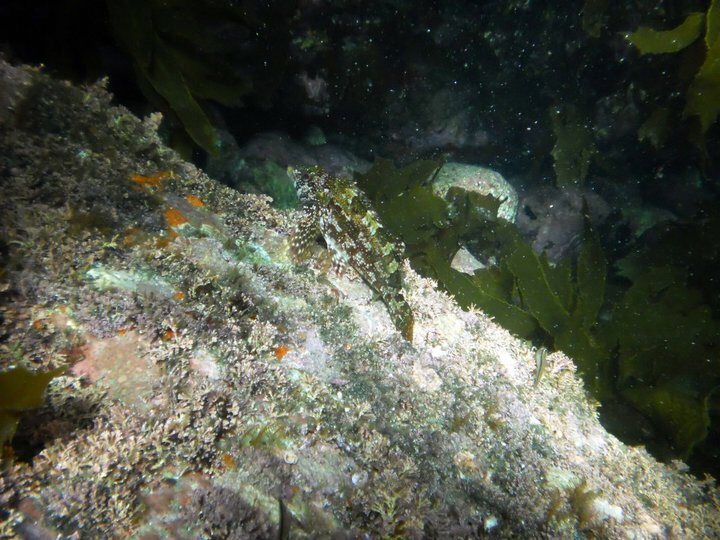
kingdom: Animalia
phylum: Chordata
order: Perciformes
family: Chironemidae
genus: Chironemus
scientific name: Chironemus marmoratus
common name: Kelpfish
